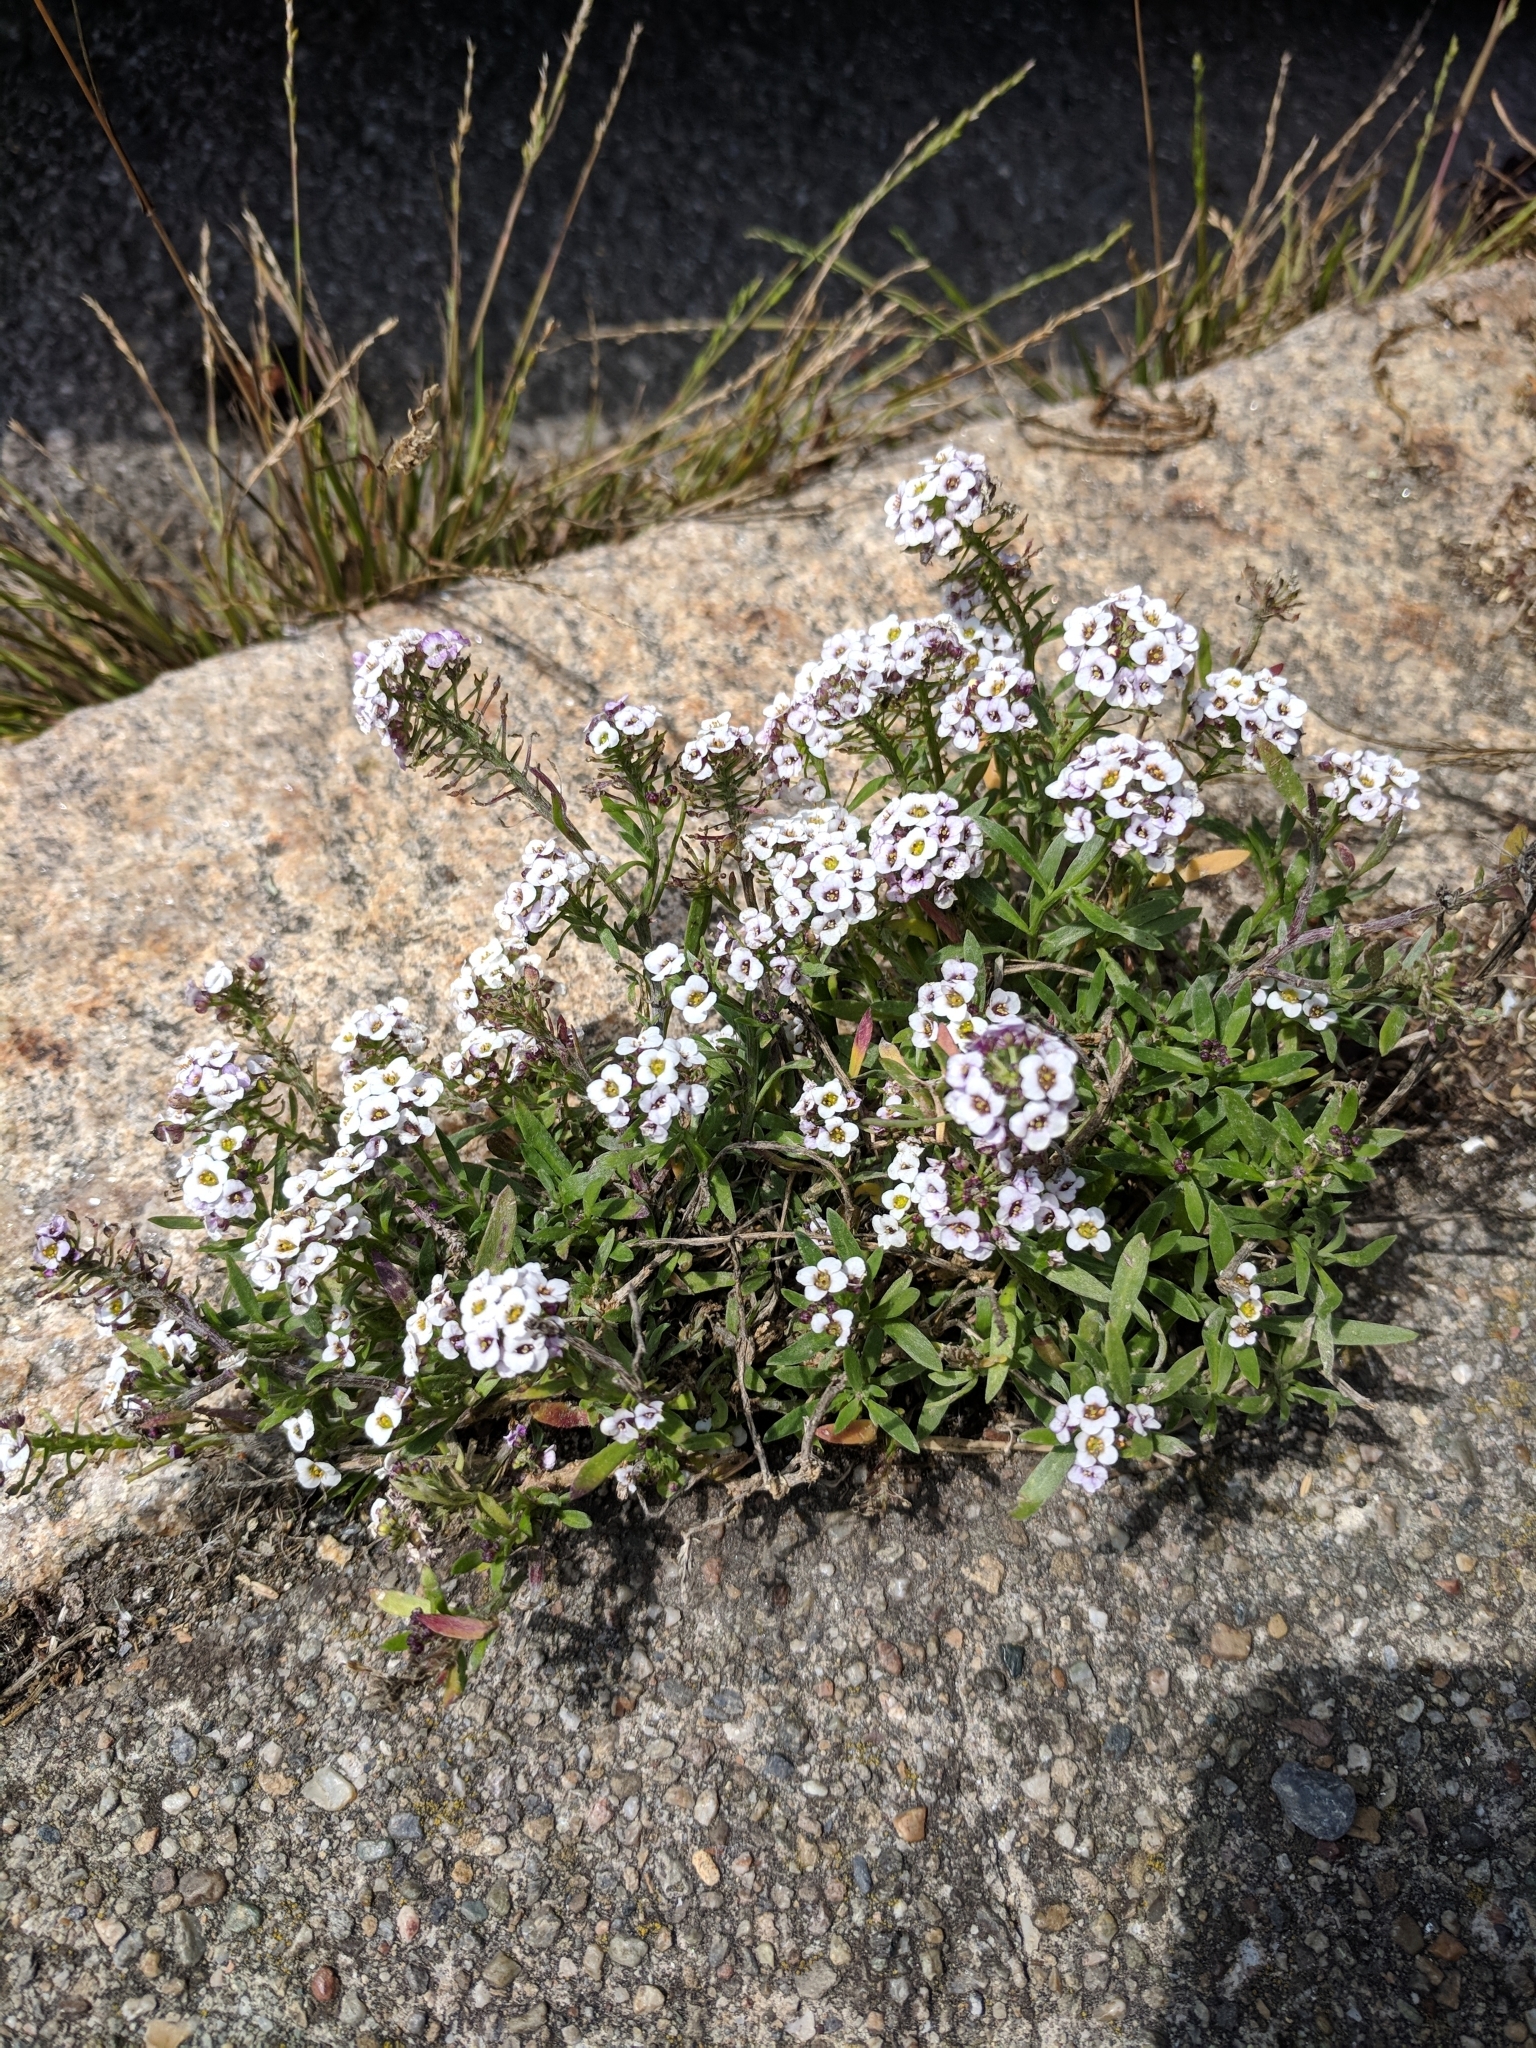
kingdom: Plantae
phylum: Tracheophyta
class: Magnoliopsida
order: Brassicales
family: Brassicaceae
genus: Lobularia
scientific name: Lobularia maritima
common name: Sweet alison
